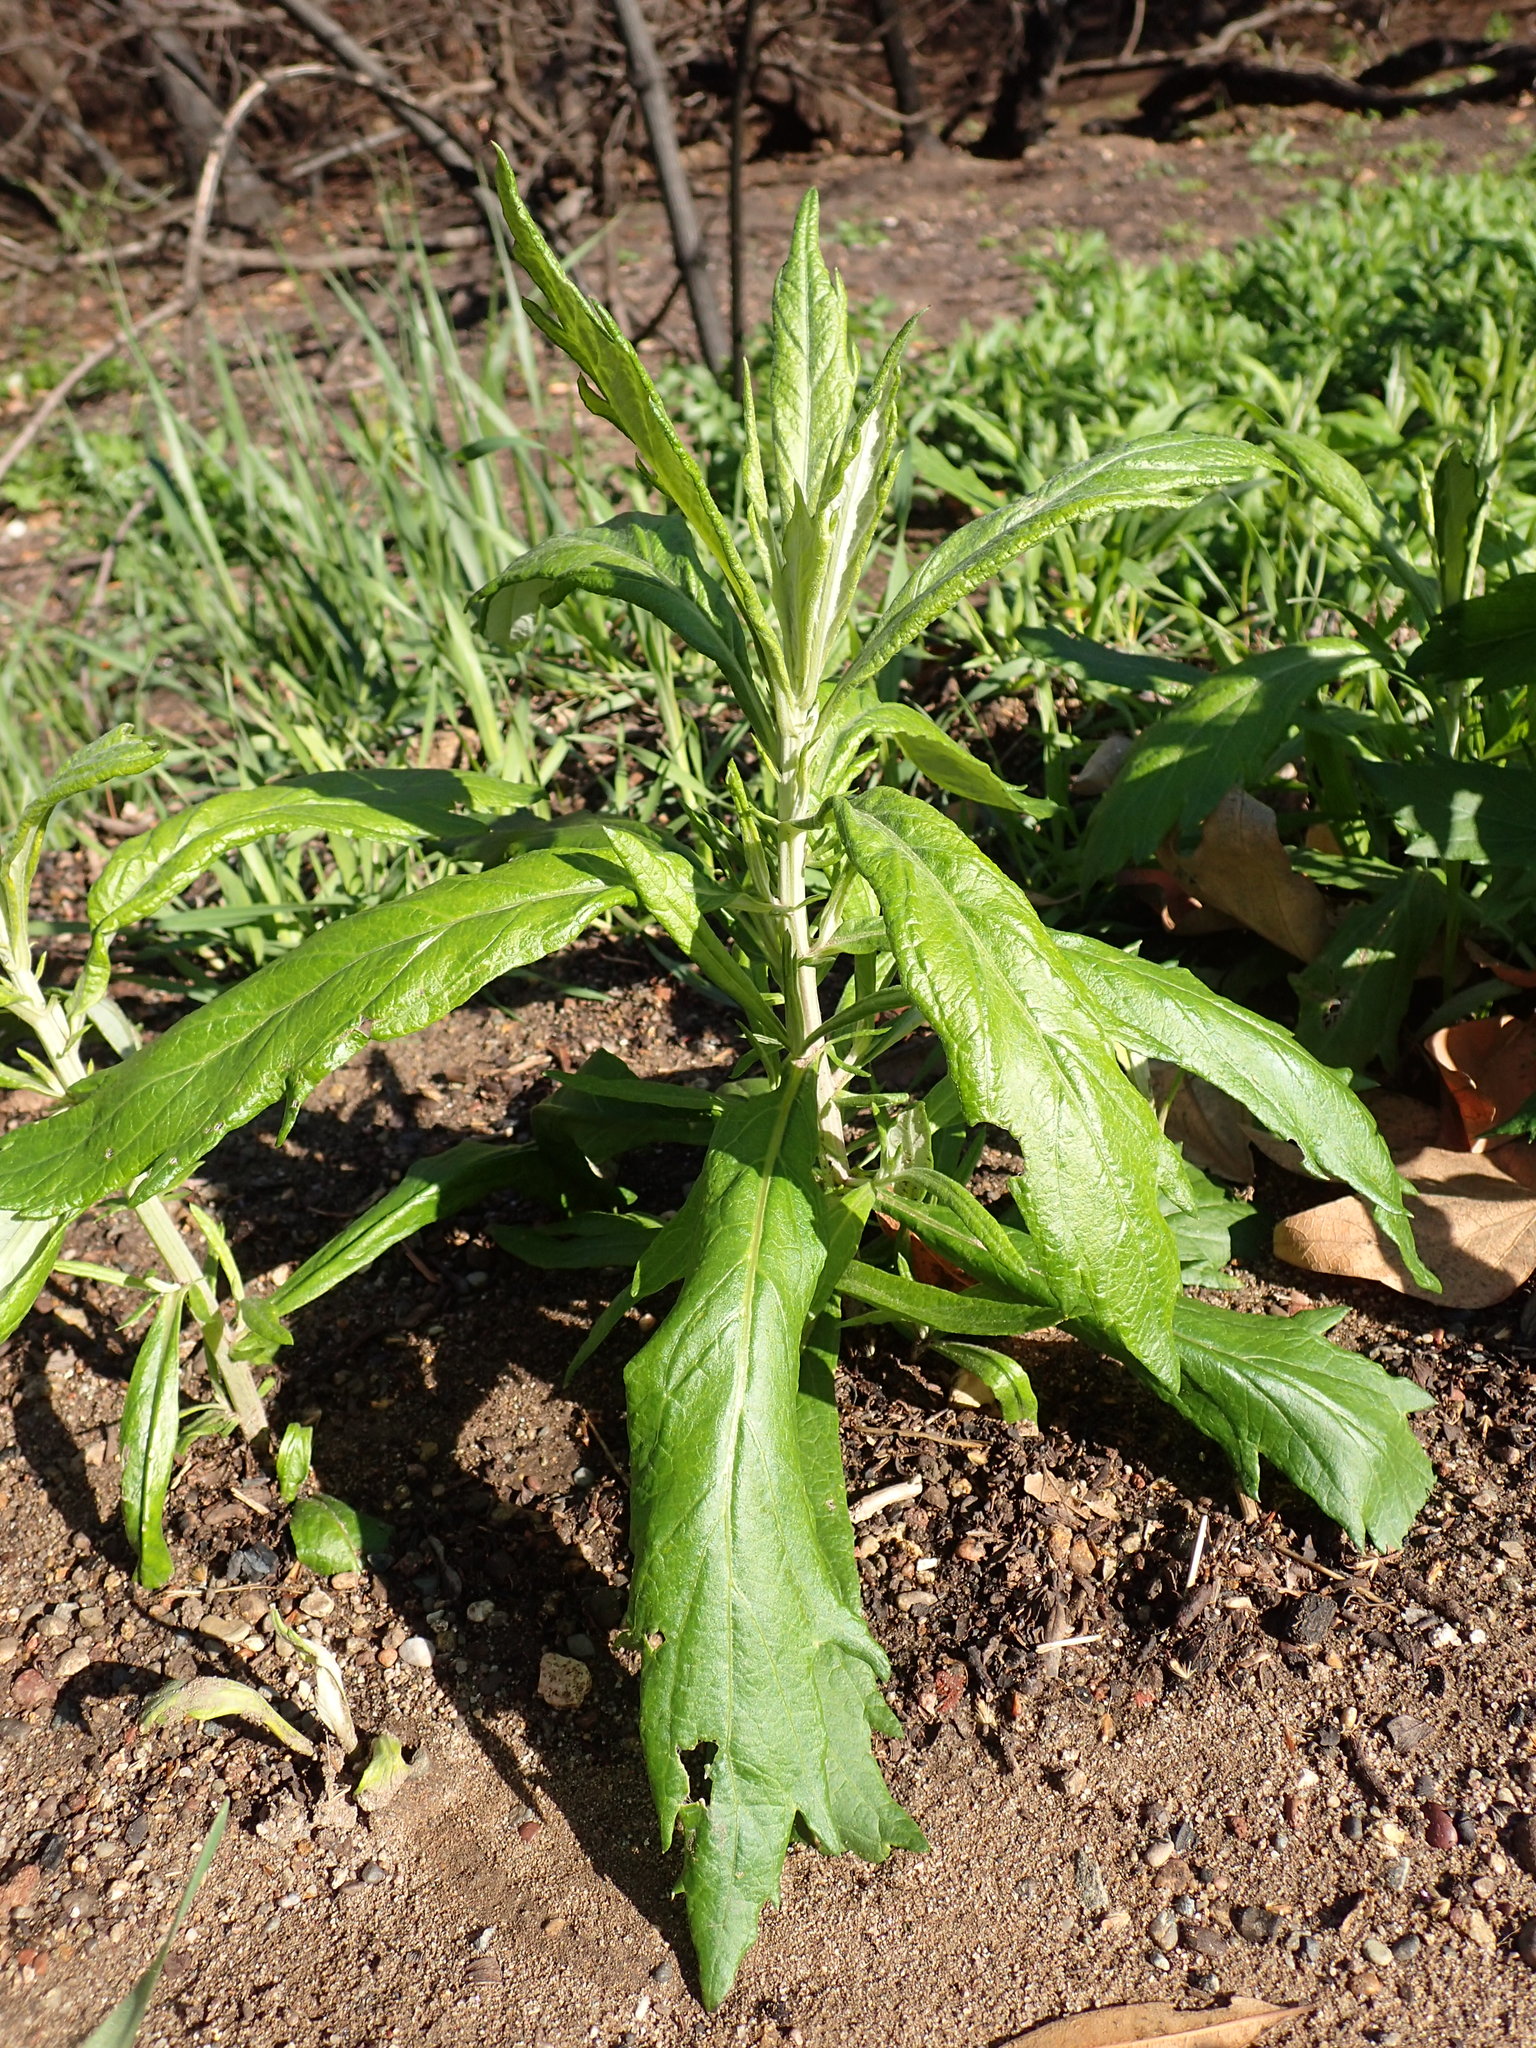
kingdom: Plantae
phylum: Tracheophyta
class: Magnoliopsida
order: Asterales
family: Asteraceae
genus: Artemisia
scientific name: Artemisia douglasiana
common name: Northwest mugwort
